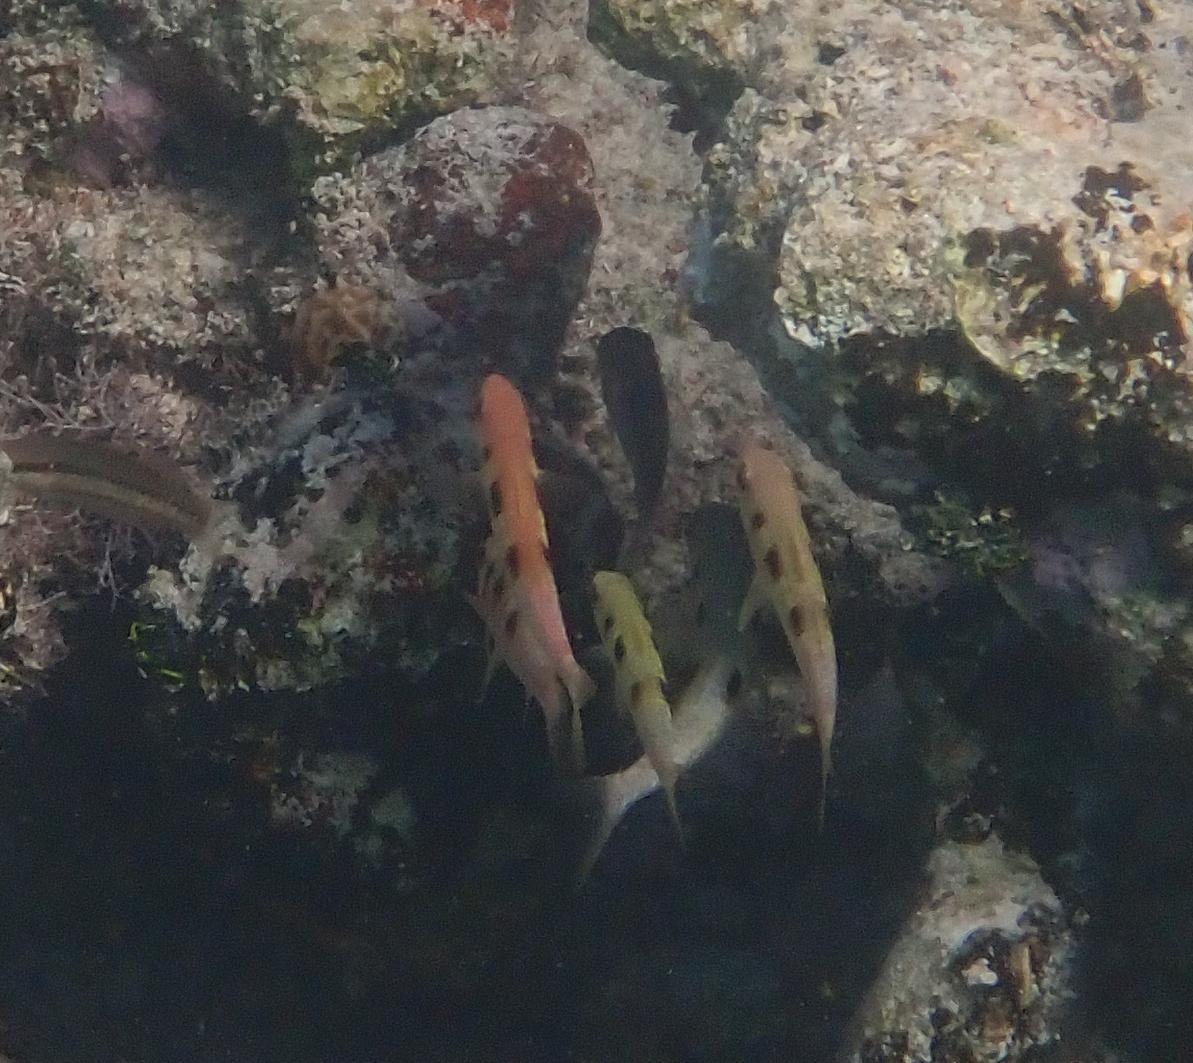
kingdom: Animalia
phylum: Chordata
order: Perciformes
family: Mullidae
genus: Pseudupeneus
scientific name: Pseudupeneus maculatus
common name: Spotted goatfish
